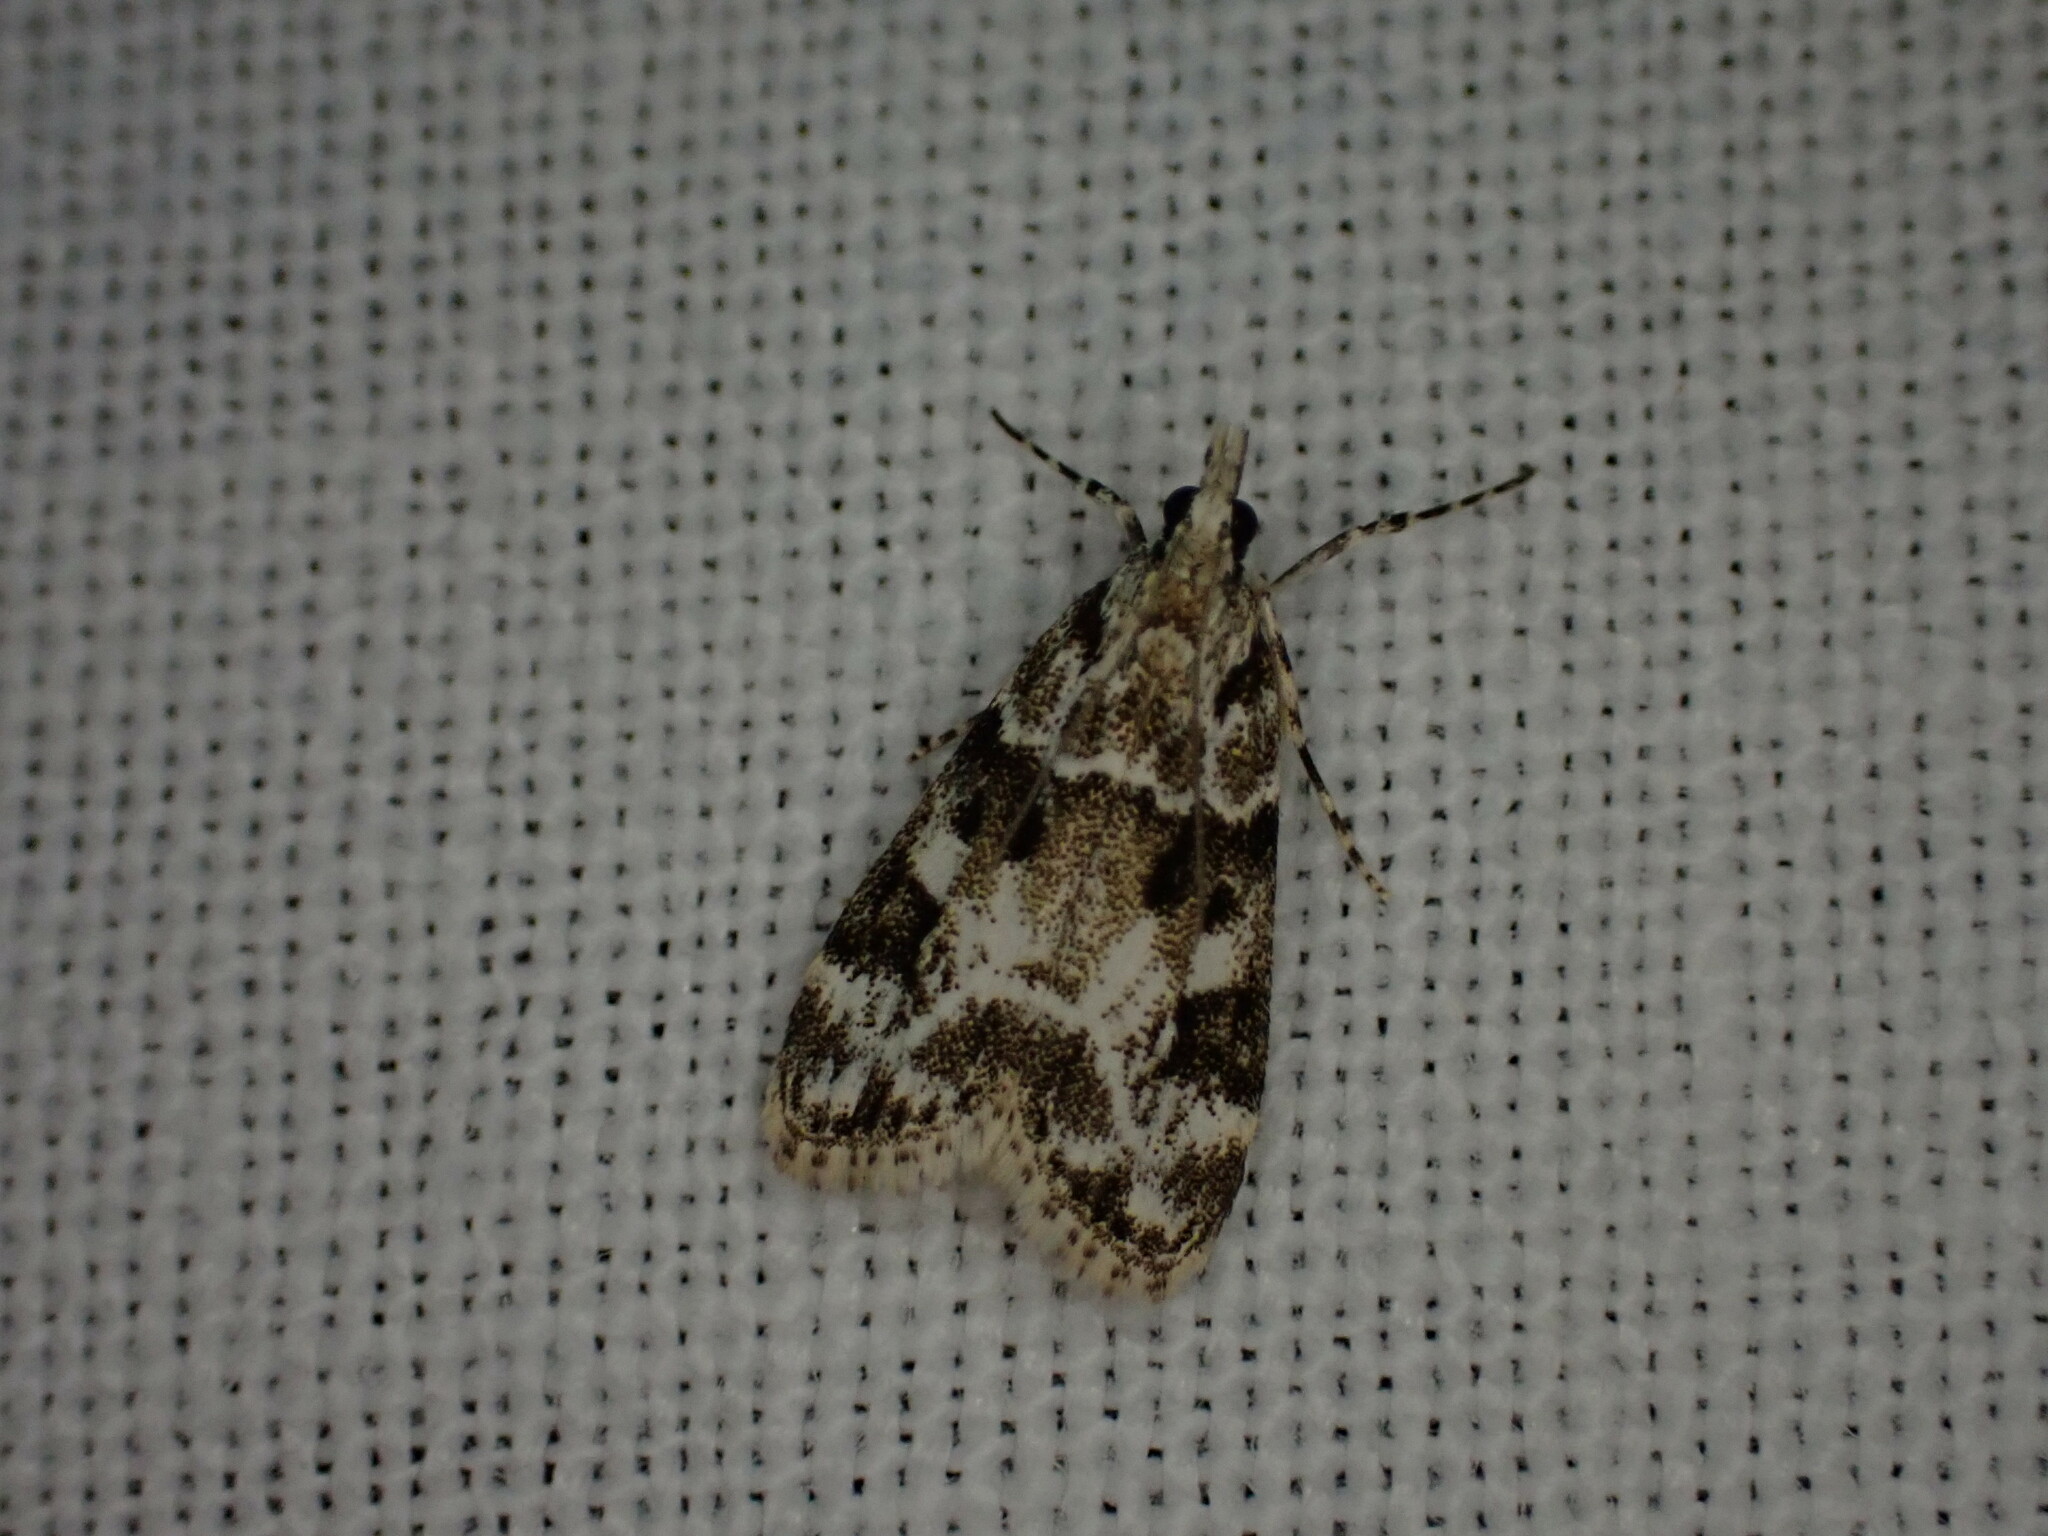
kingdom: Animalia
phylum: Arthropoda
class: Insecta
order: Lepidoptera
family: Crambidae
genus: Eudonia
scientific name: Eudonia delunella
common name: Pied grey
